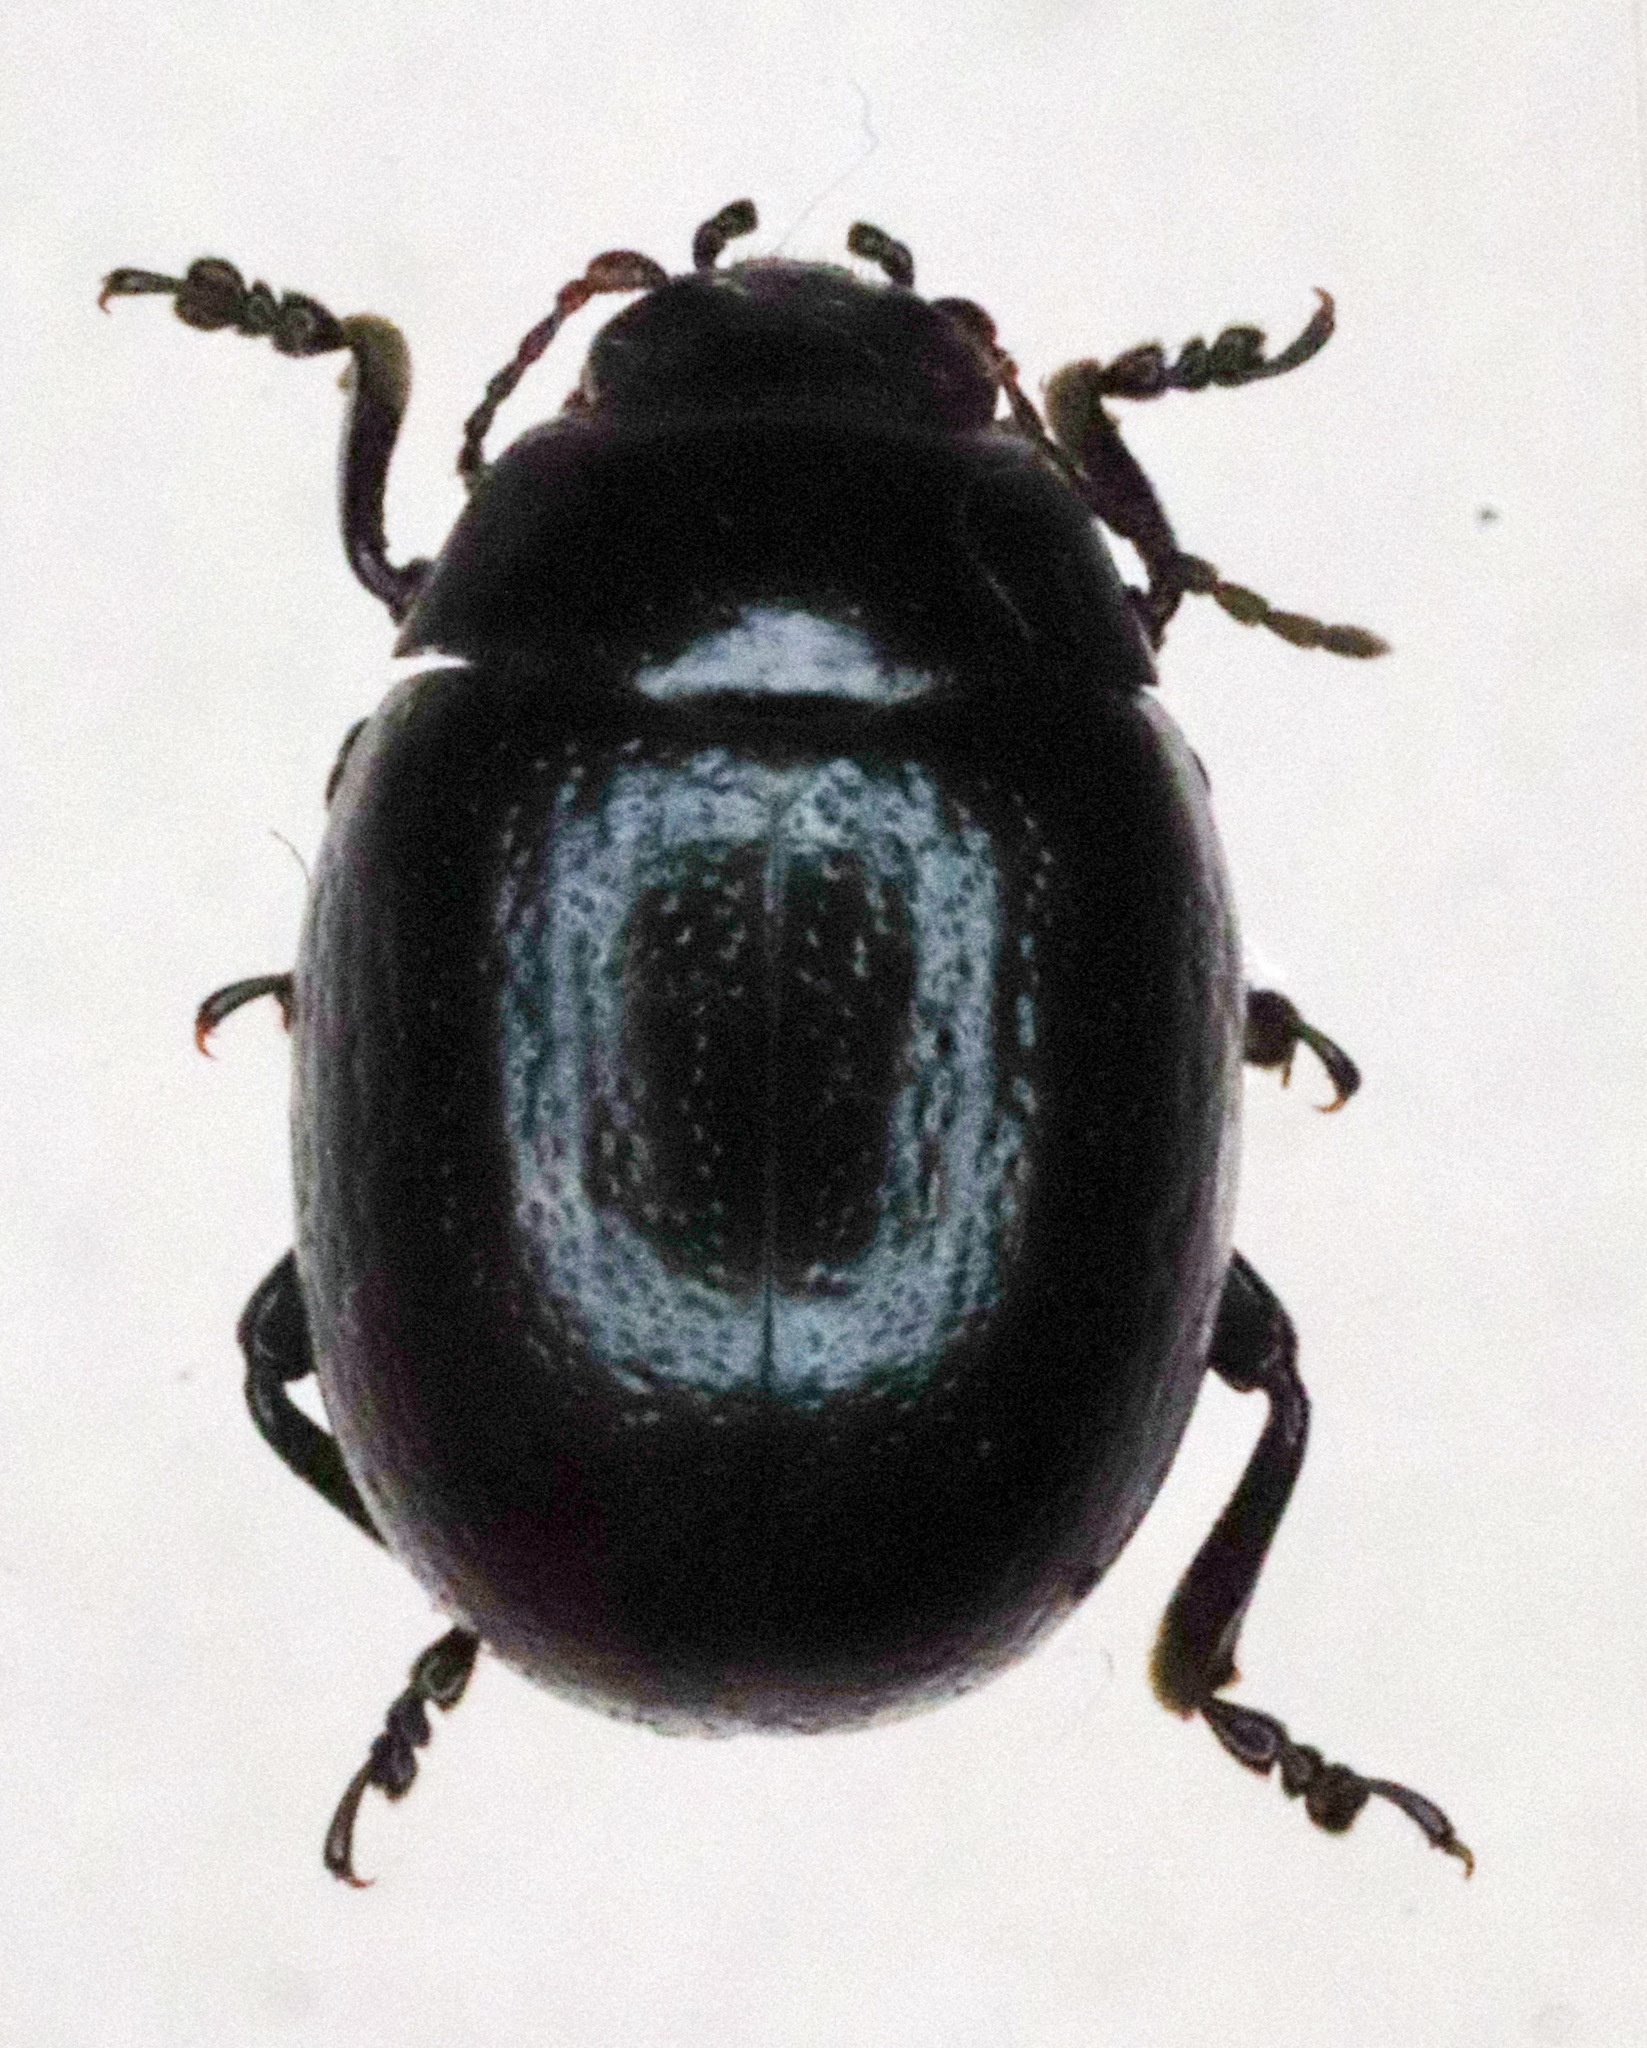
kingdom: Animalia
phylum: Arthropoda
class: Insecta
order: Coleoptera
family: Chrysomelidae
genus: Chrysolina
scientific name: Chrysolina haemoptera
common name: Plantain leaf beetle
